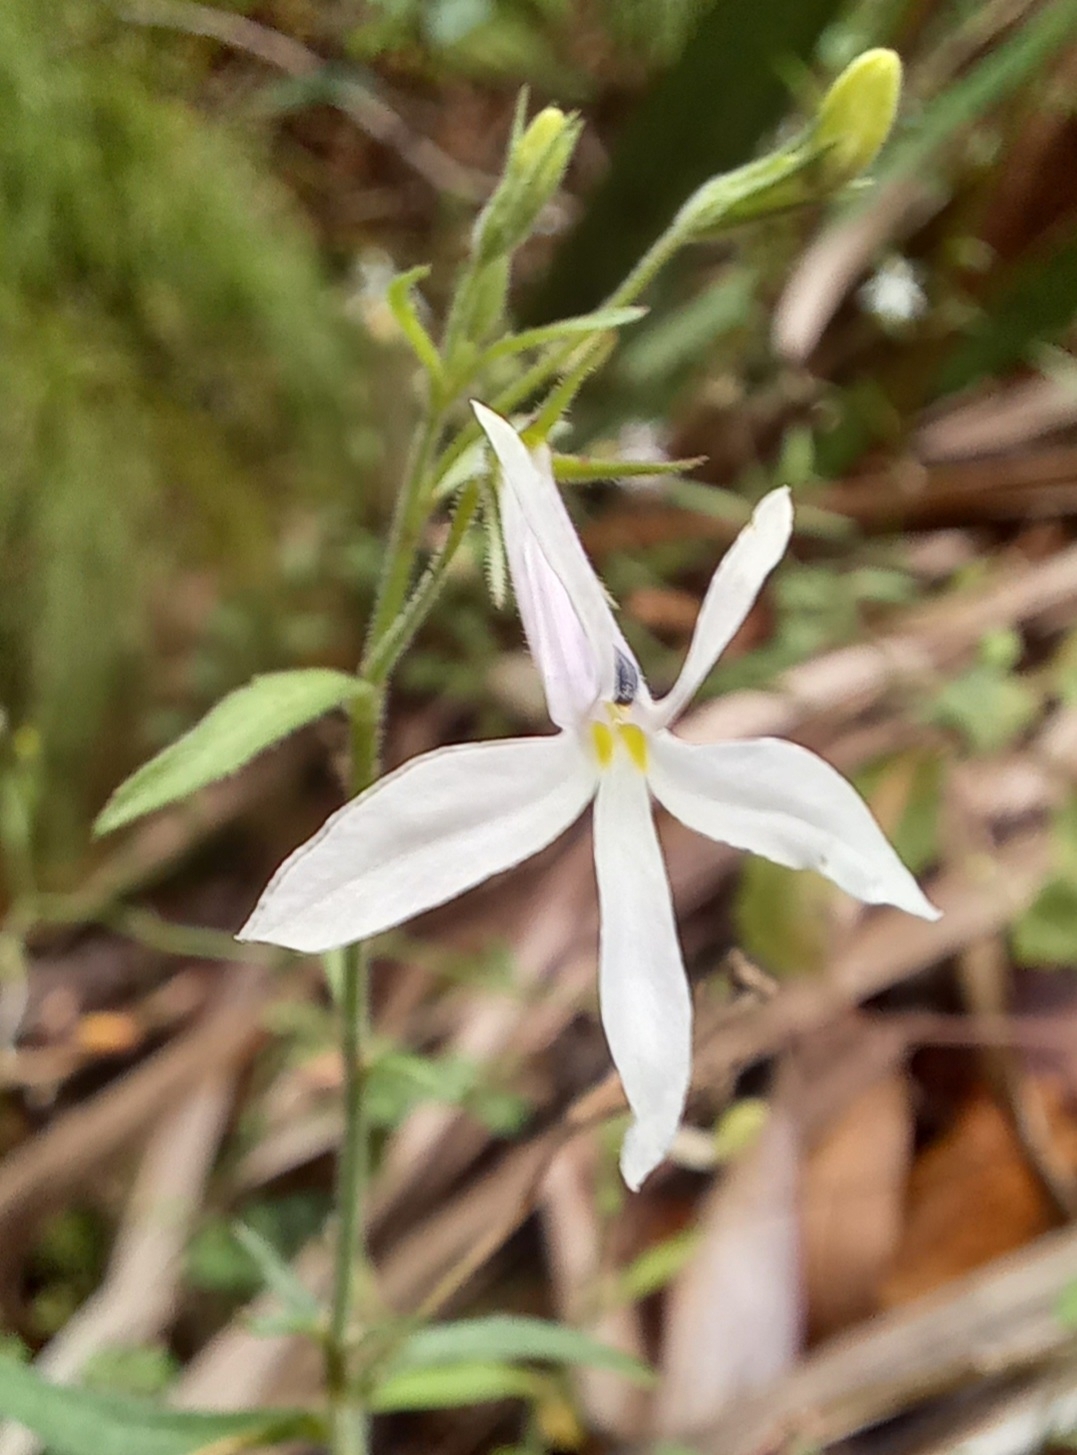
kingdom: Plantae
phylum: Tracheophyta
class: Magnoliopsida
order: Asterales
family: Campanulaceae
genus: Lobelia
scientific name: Lobelia pubescens
